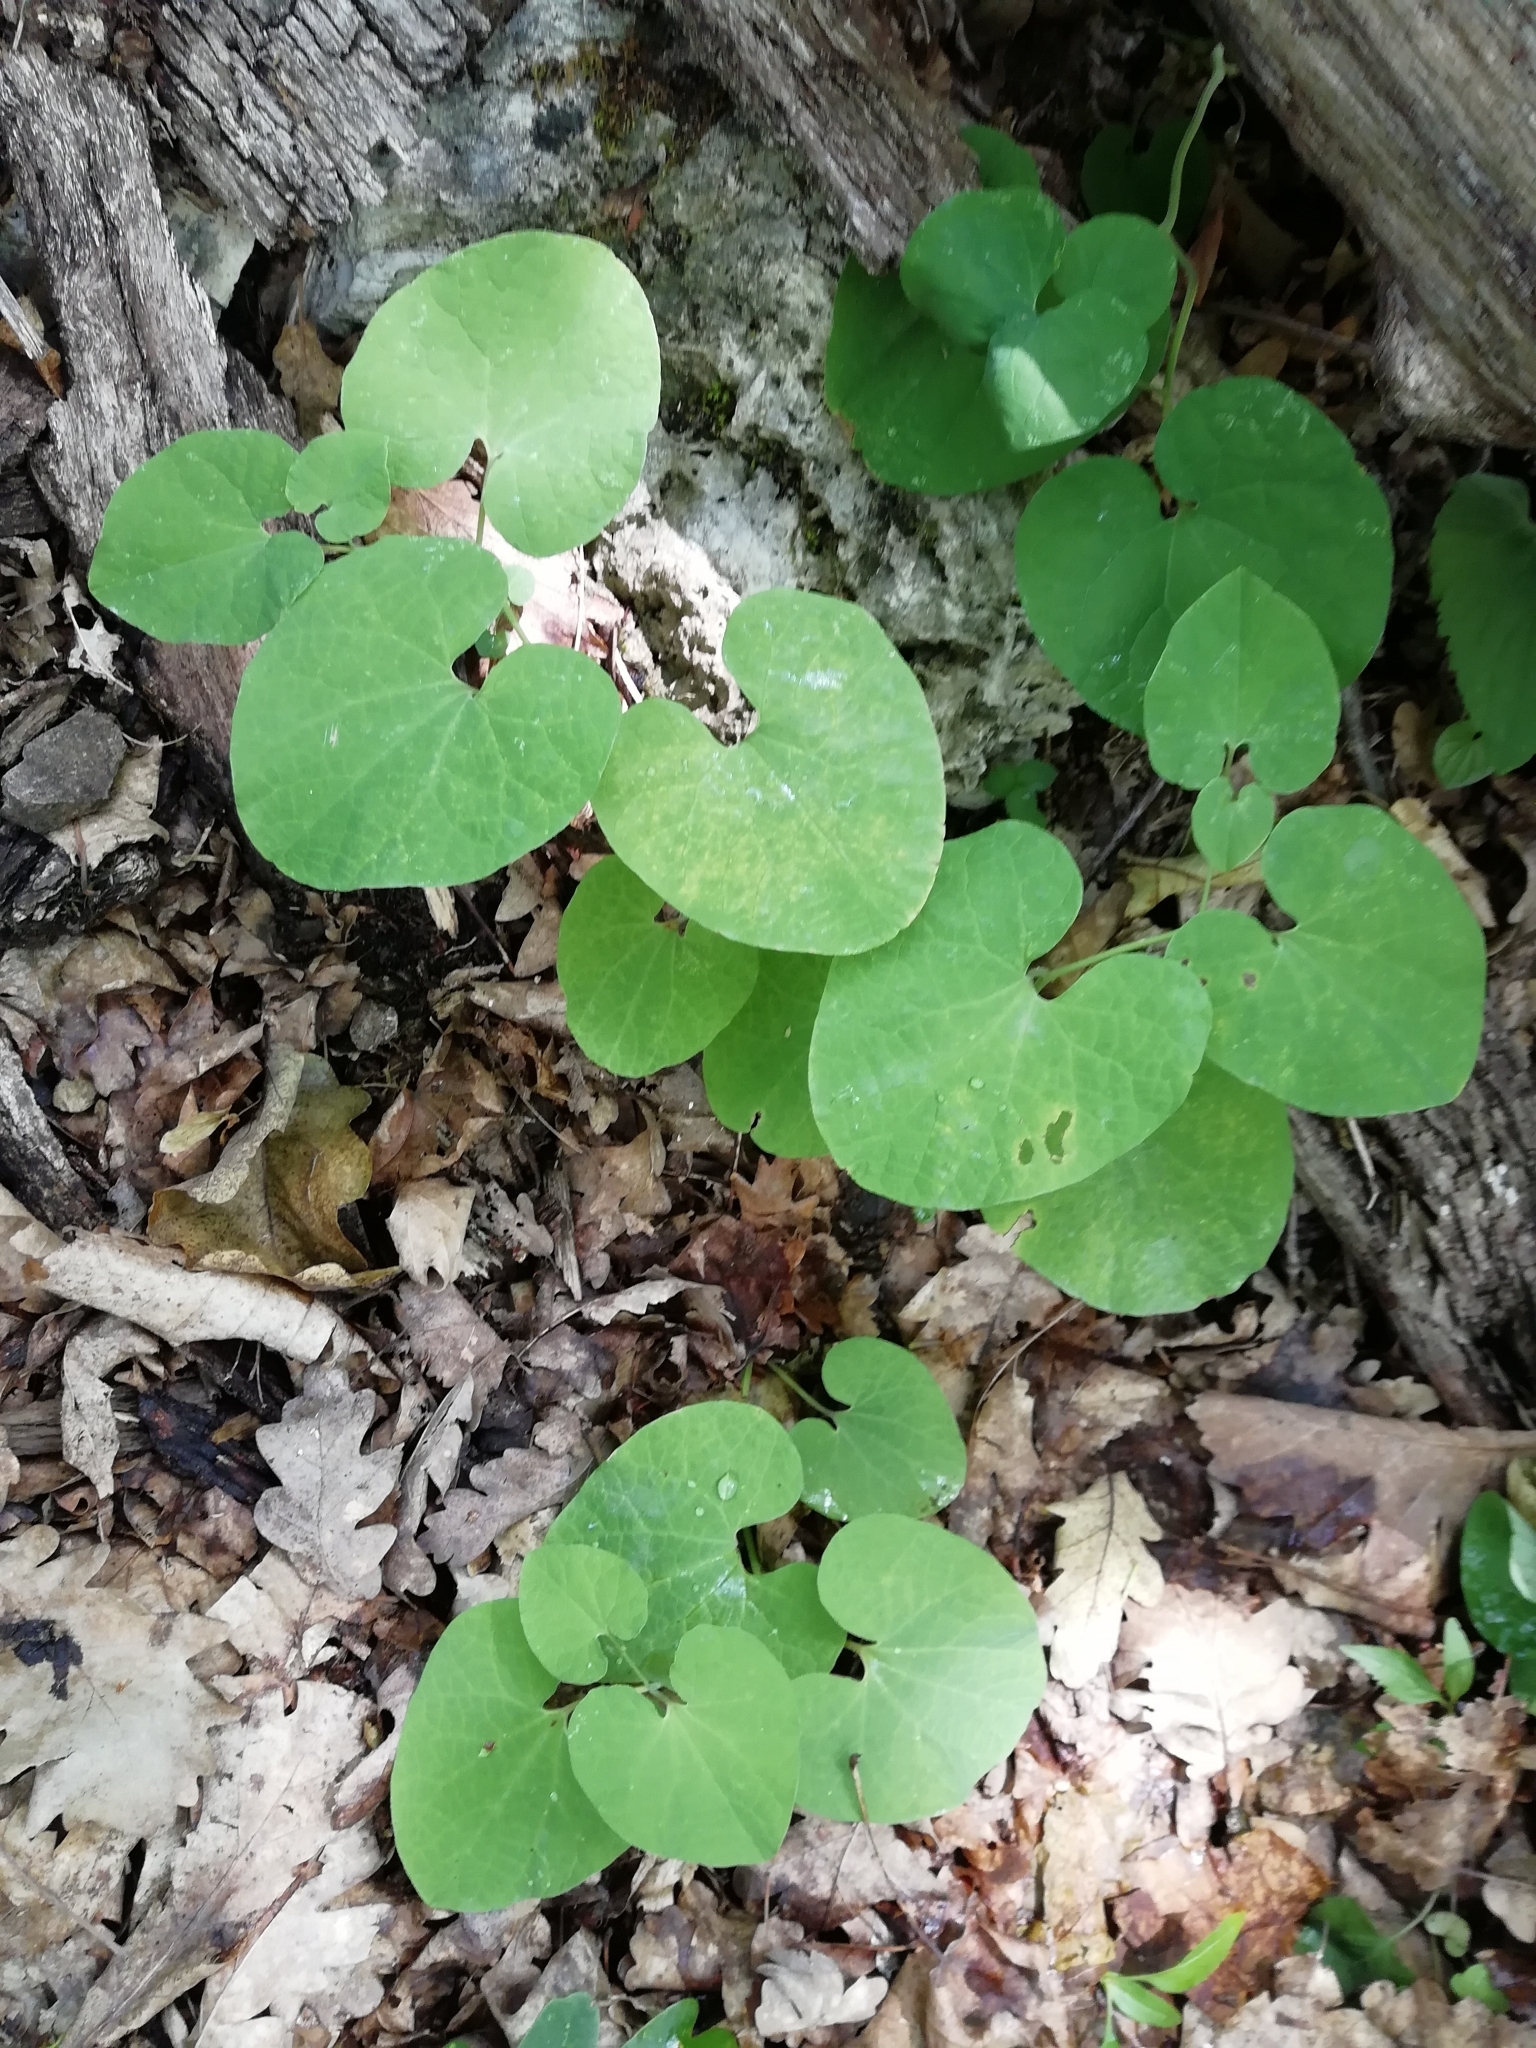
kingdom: Plantae
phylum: Tracheophyta
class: Magnoliopsida
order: Piperales
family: Aristolochiaceae
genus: Aristolochia
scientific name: Aristolochia steupii
